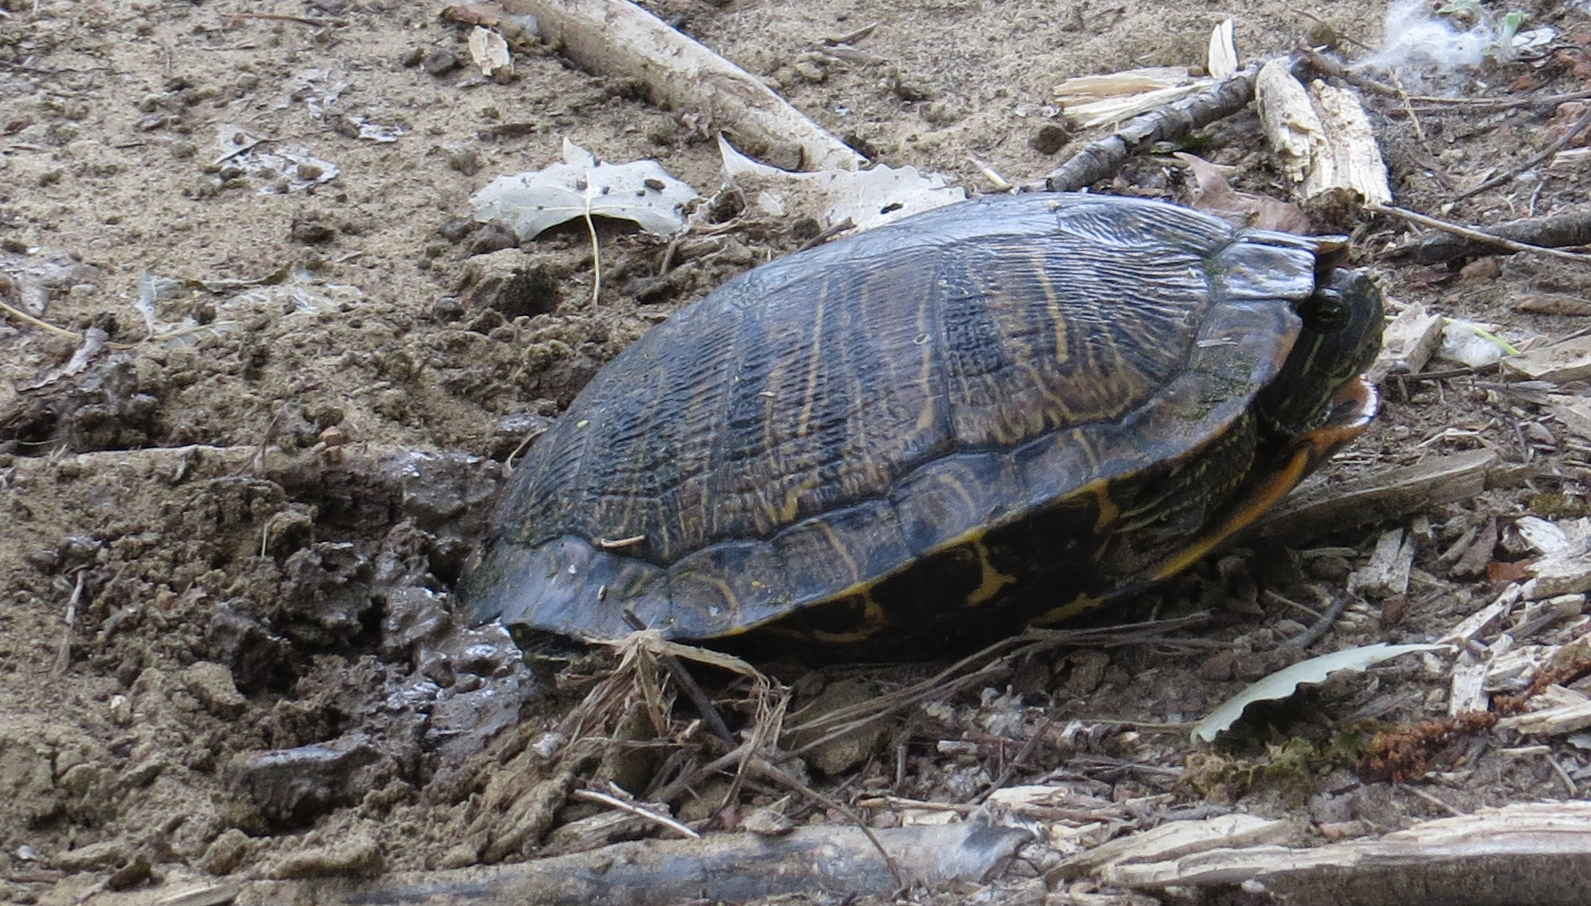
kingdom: Animalia
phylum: Chordata
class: Testudines
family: Emydidae
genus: Trachemys
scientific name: Trachemys scripta
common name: Slider
